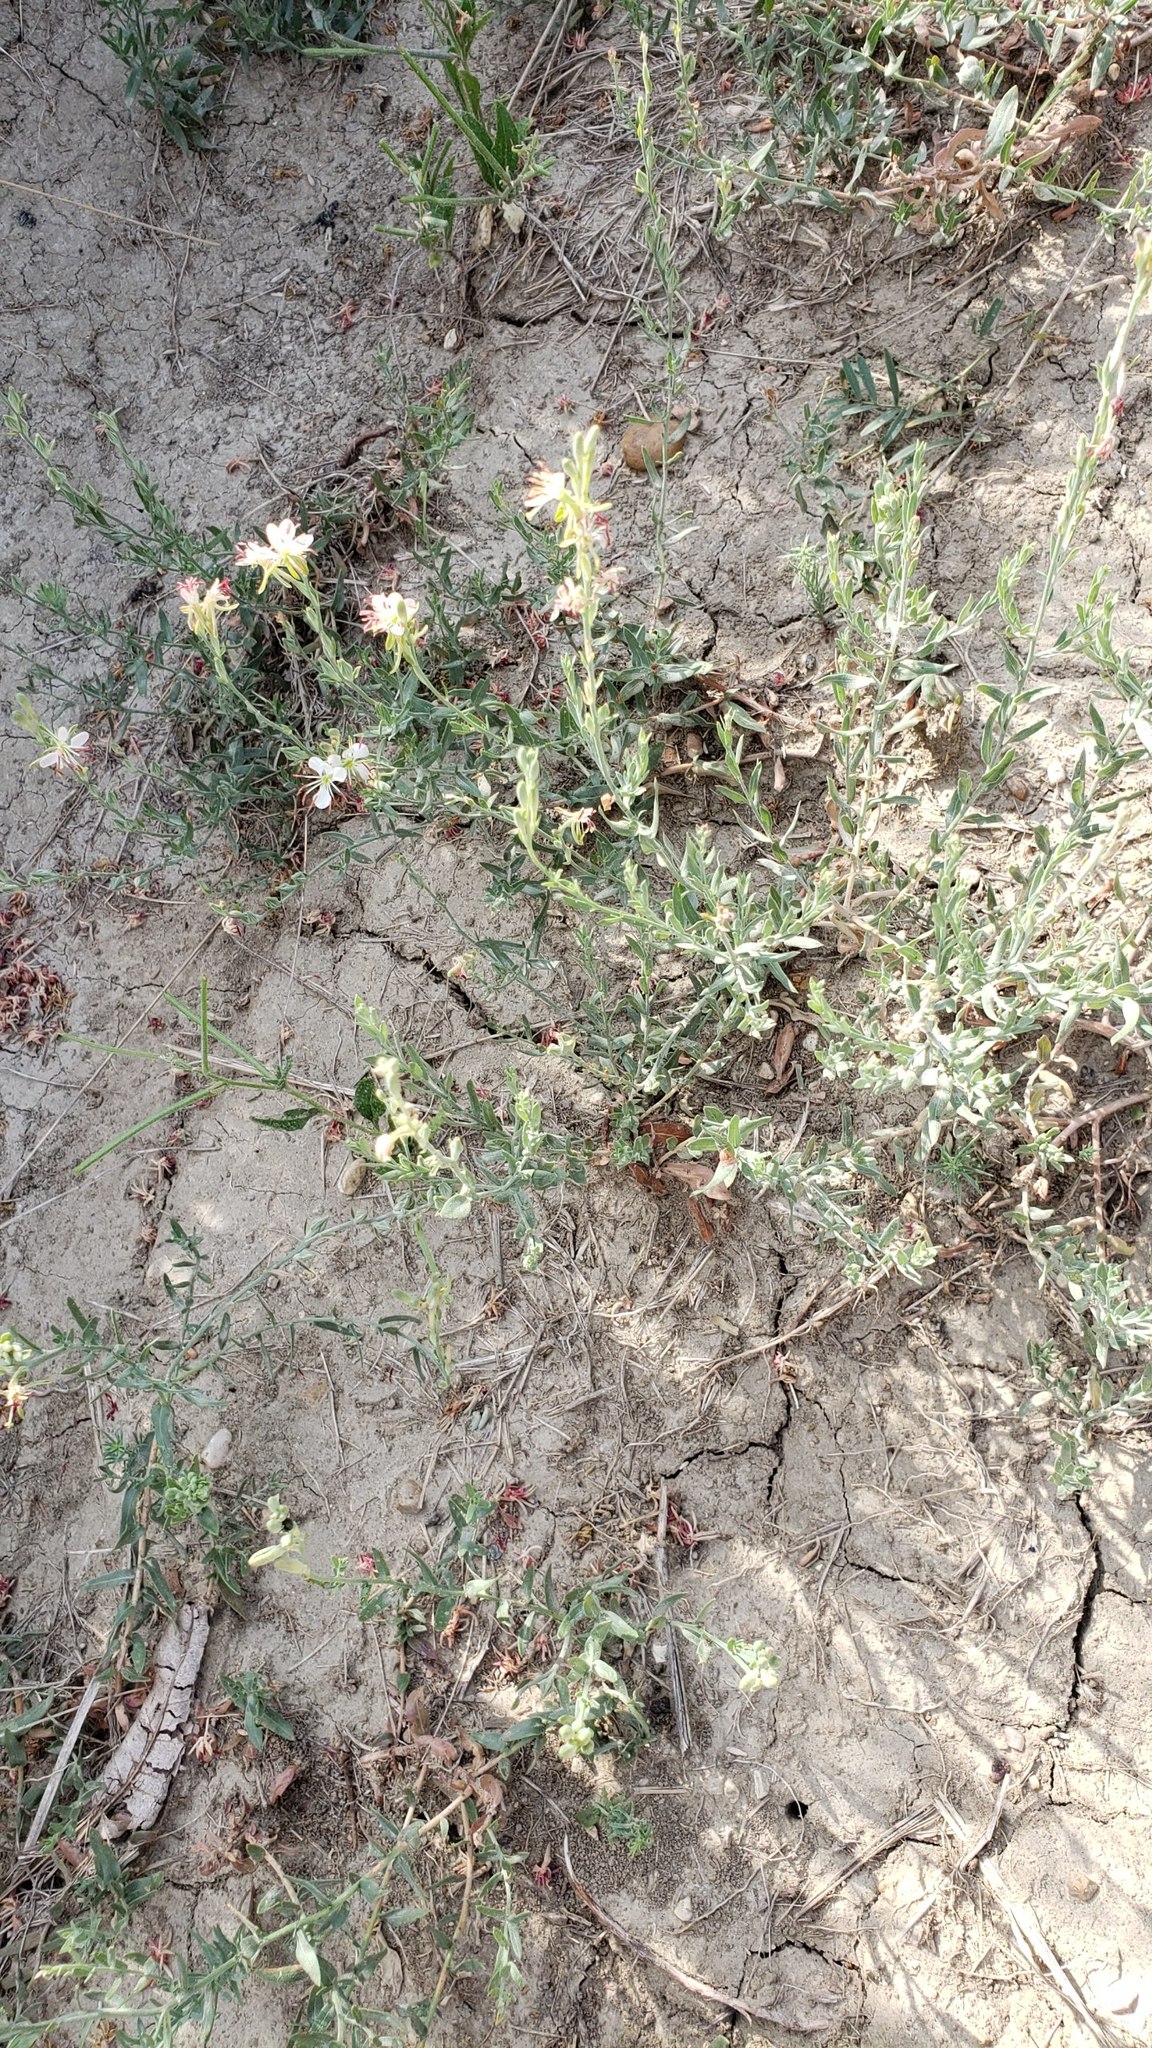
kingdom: Plantae
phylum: Tracheophyta
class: Magnoliopsida
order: Myrtales
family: Onagraceae
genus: Oenothera
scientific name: Oenothera suffrutescens
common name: Scarlet beeblossom
